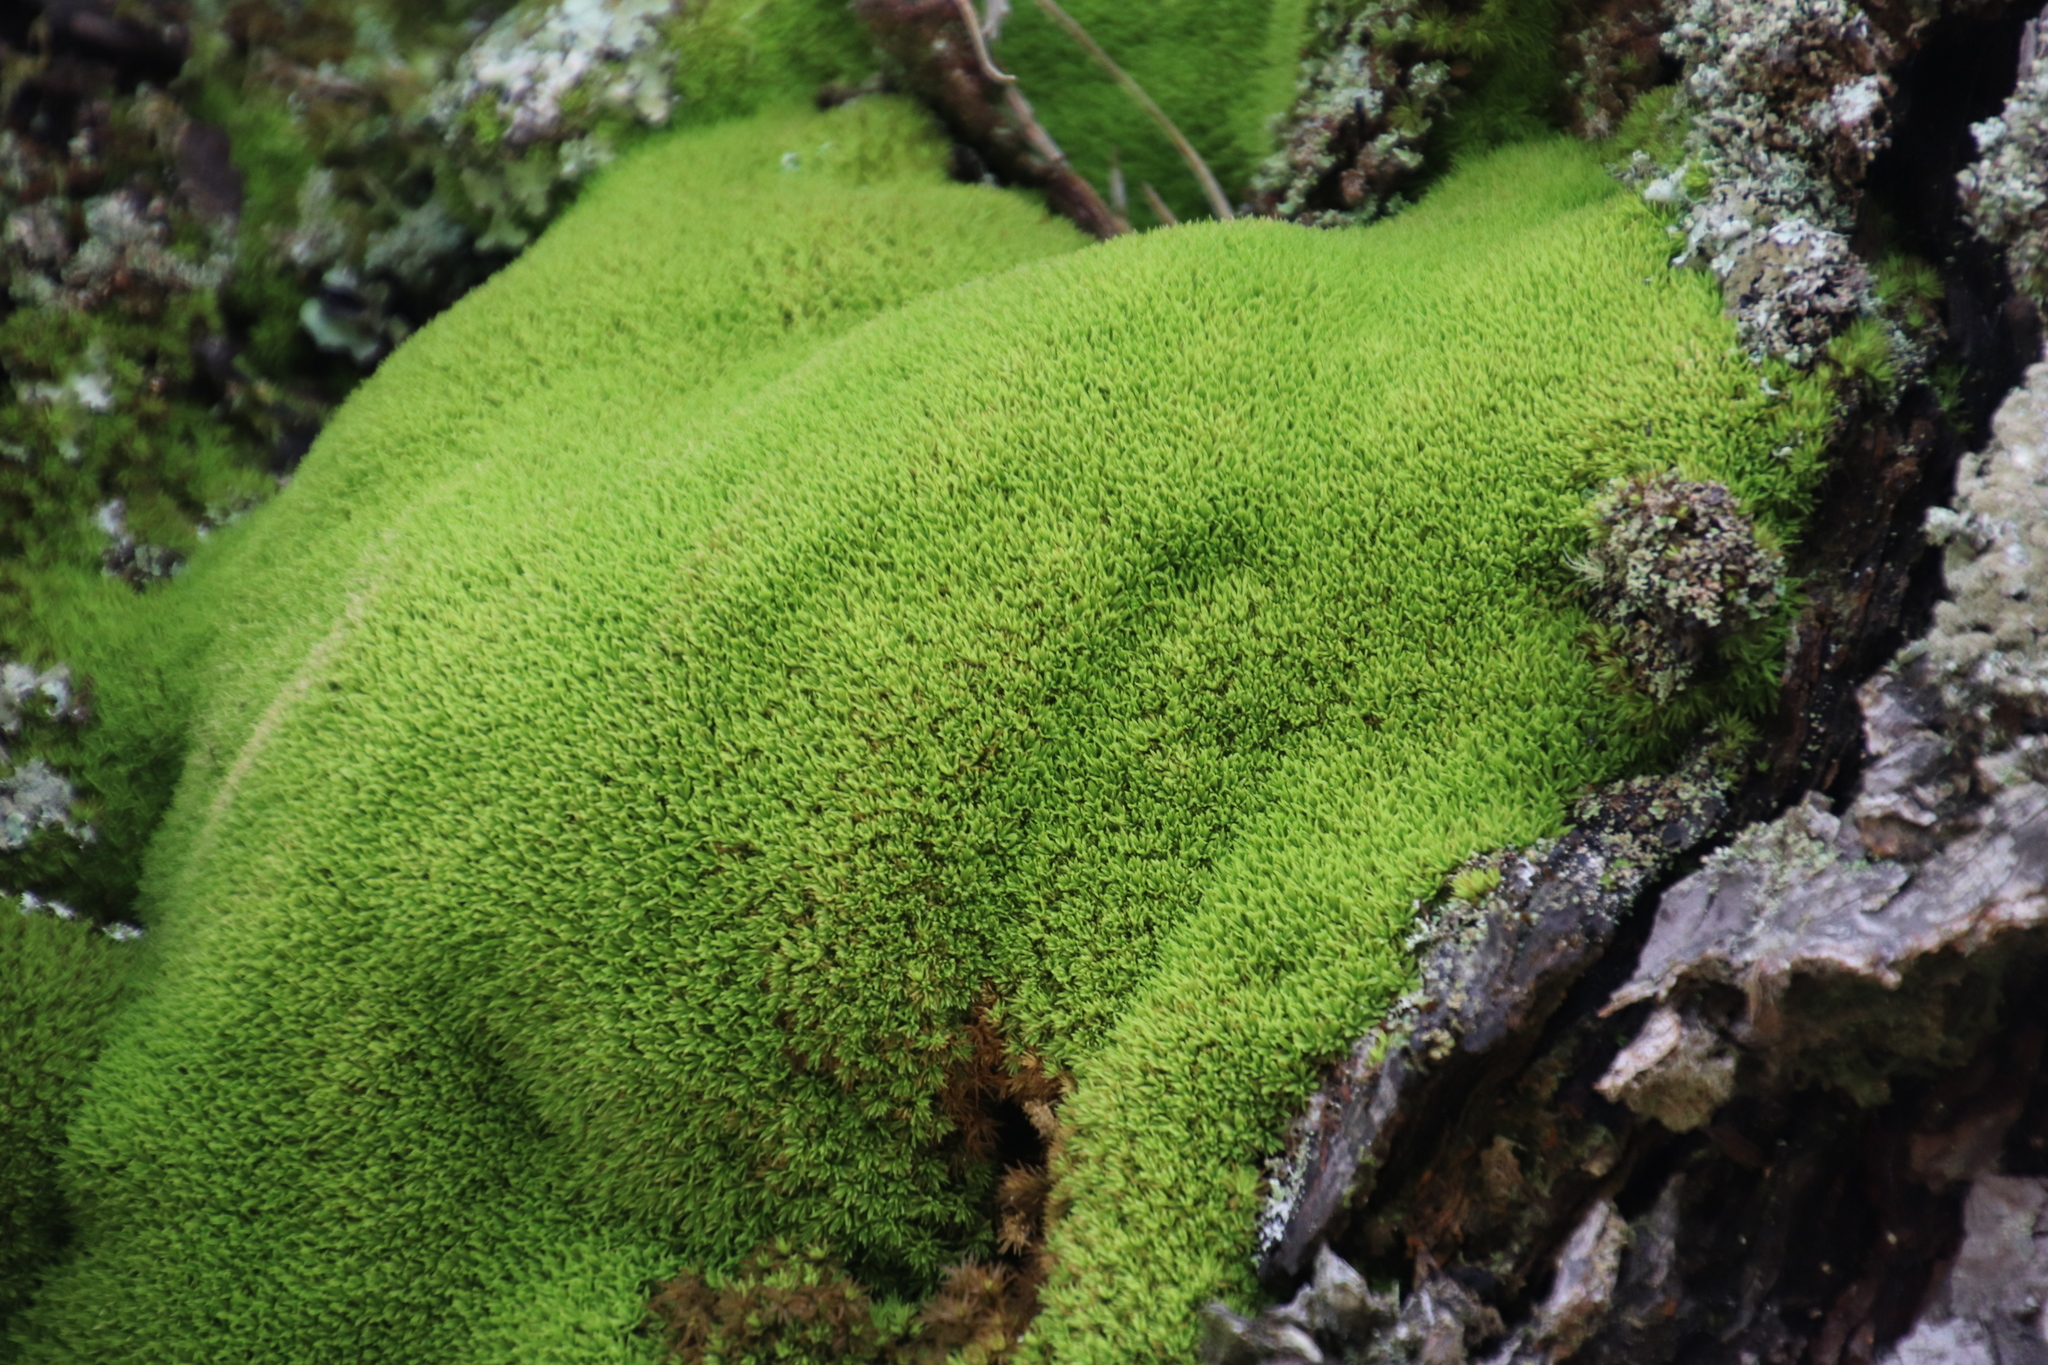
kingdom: Plantae
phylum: Bryophyta
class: Bryopsida
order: Dicranales
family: Hypodontiaceae
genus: Hypodontium
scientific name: Hypodontium pomiforme
